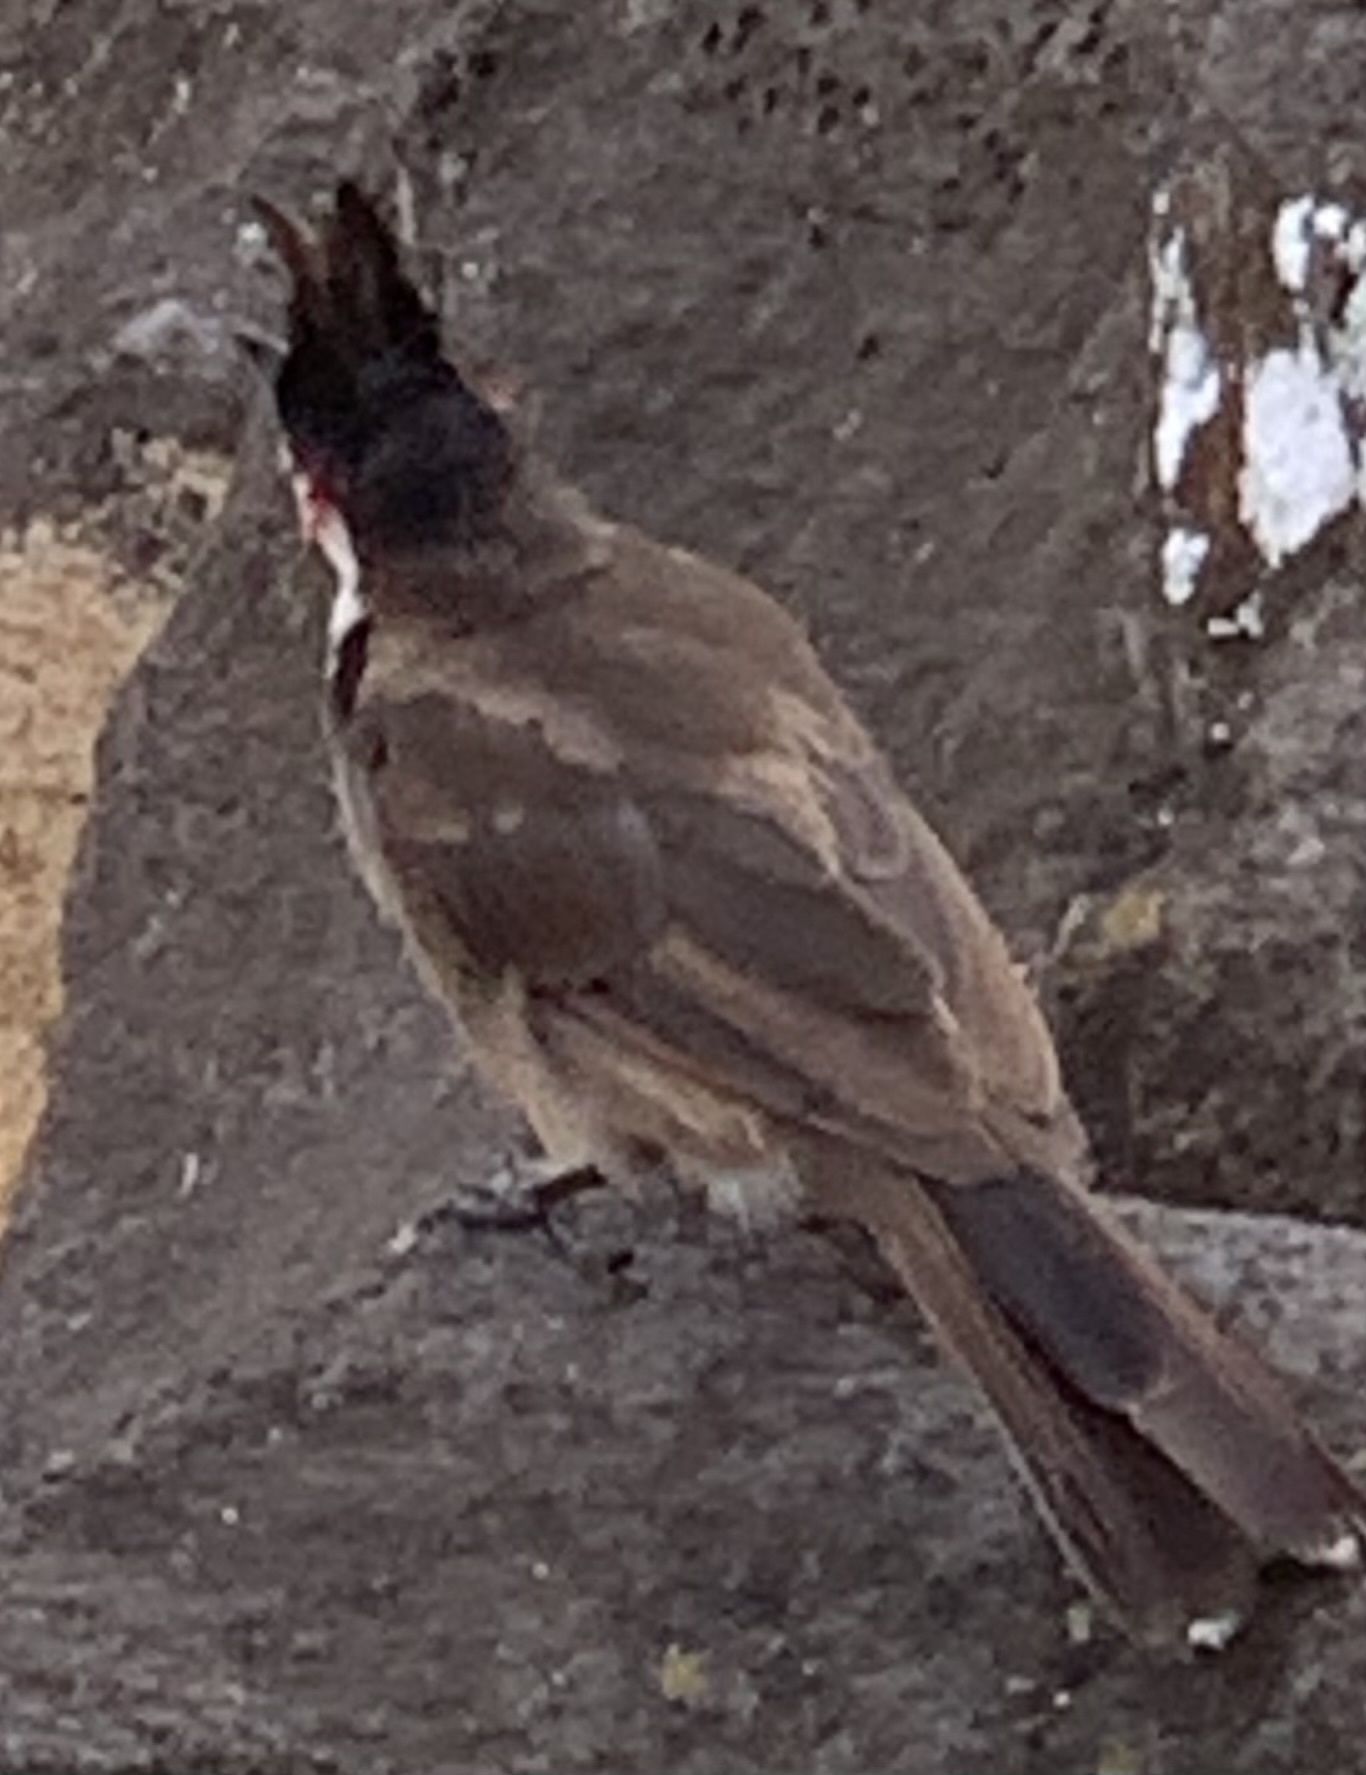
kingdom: Animalia
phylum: Chordata
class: Aves
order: Passeriformes
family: Pycnonotidae
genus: Pycnonotus
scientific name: Pycnonotus jocosus
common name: Red-whiskered bulbul
